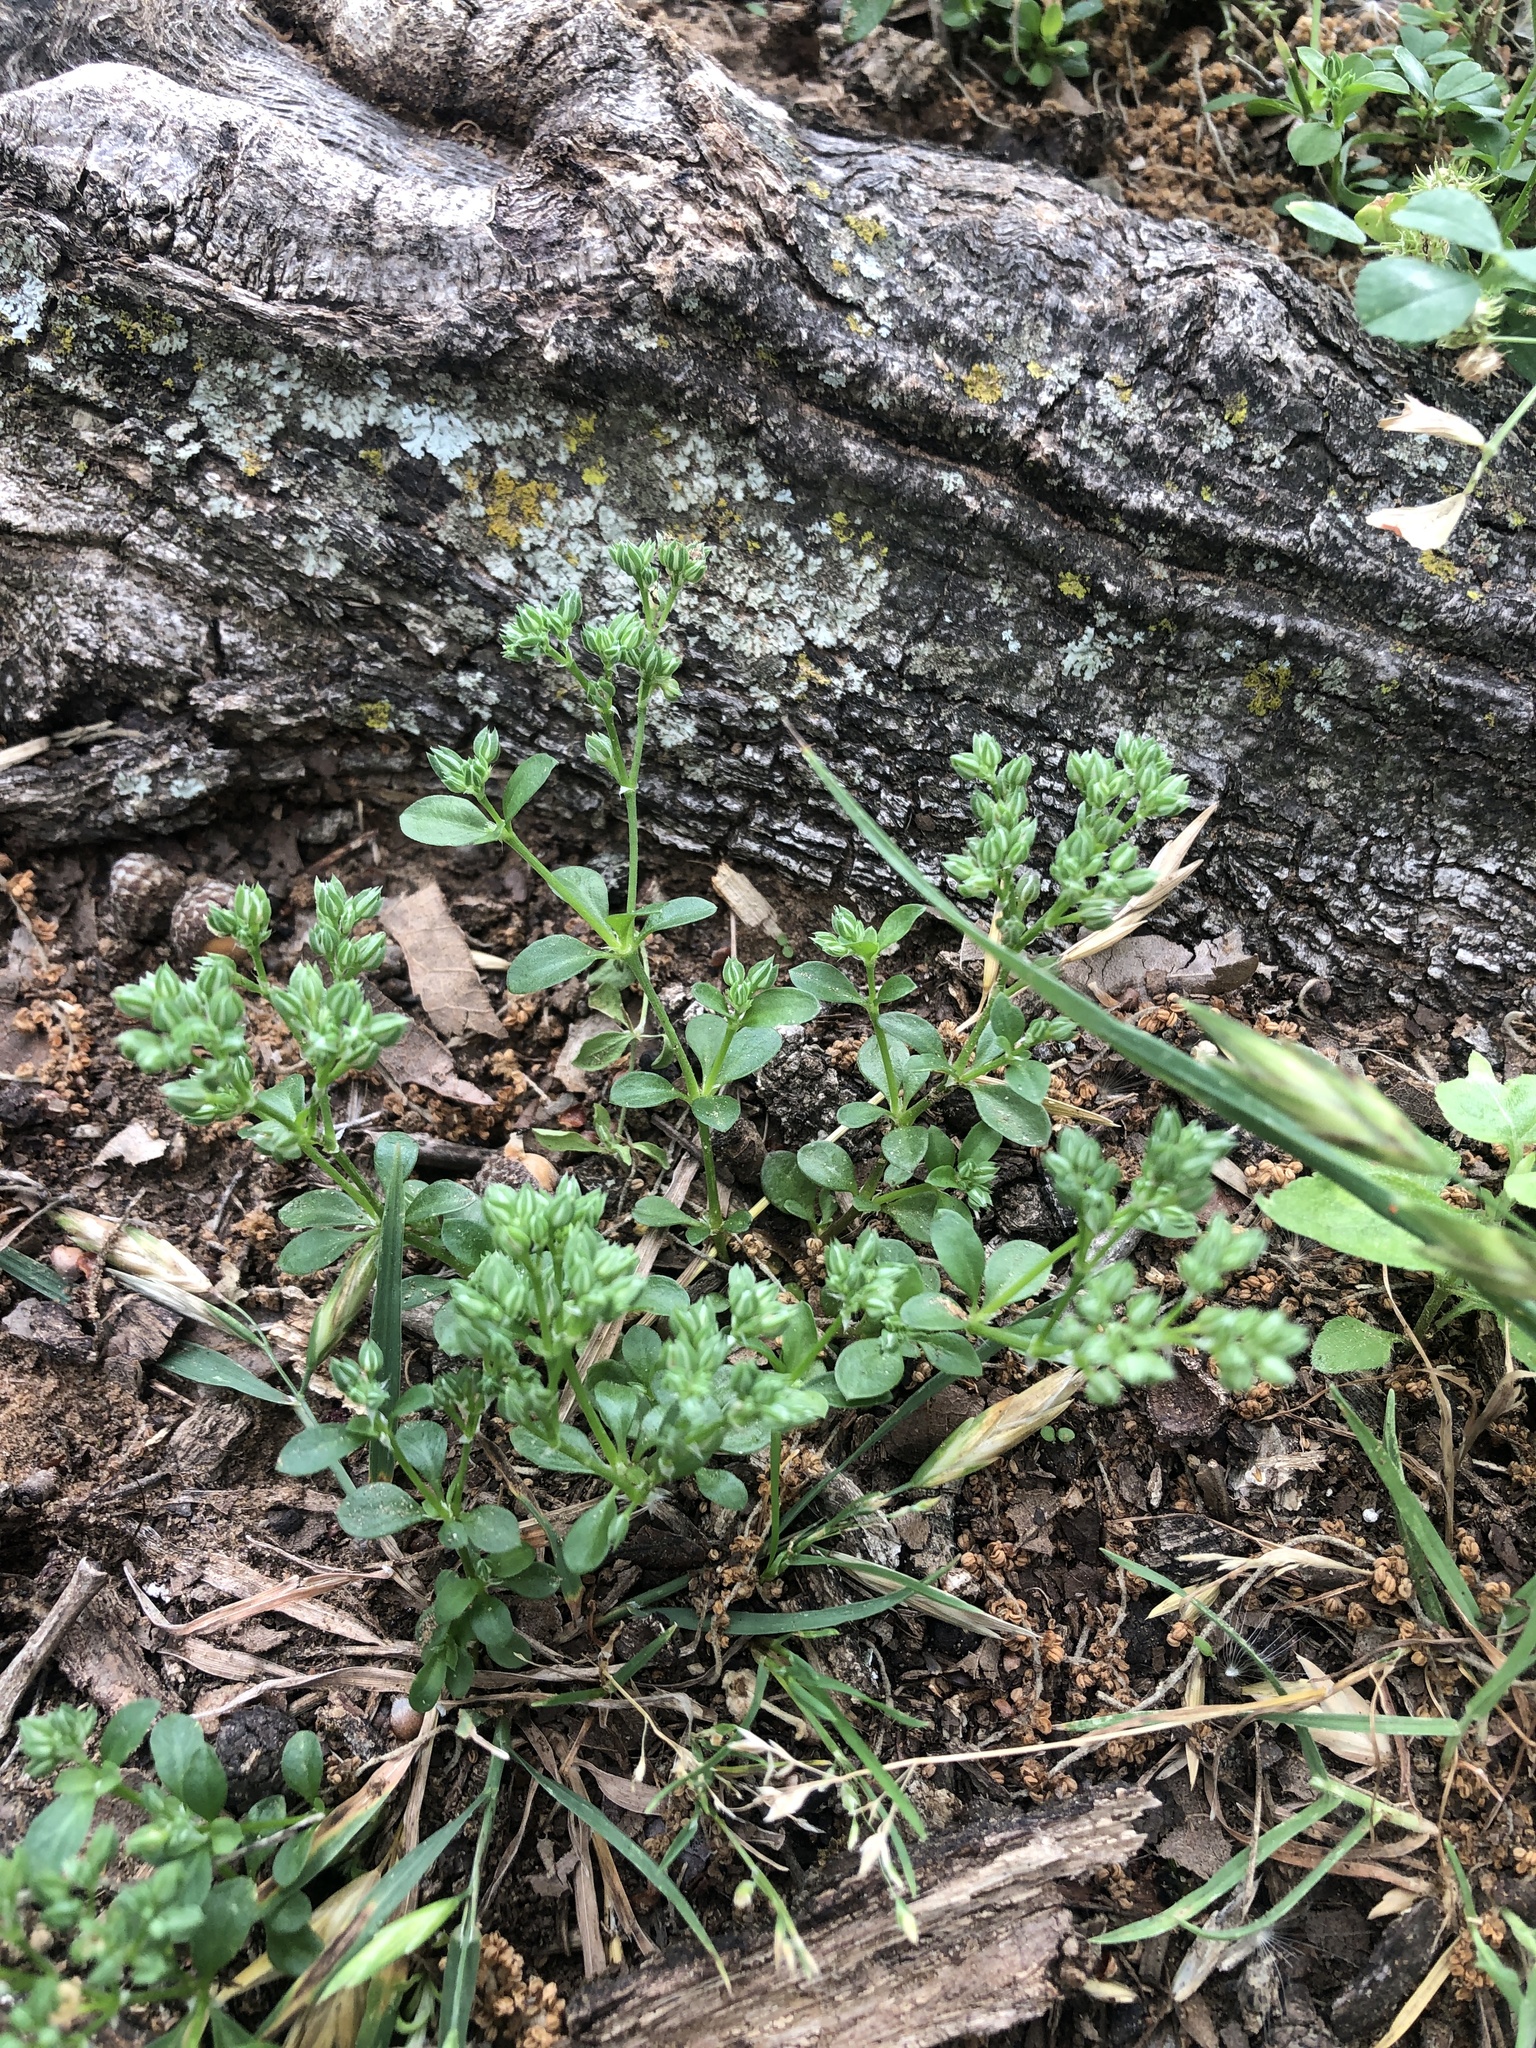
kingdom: Plantae
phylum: Tracheophyta
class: Magnoliopsida
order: Caryophyllales
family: Caryophyllaceae
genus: Polycarpon
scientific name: Polycarpon tetraphyllum
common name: Four-leaved all-seed
